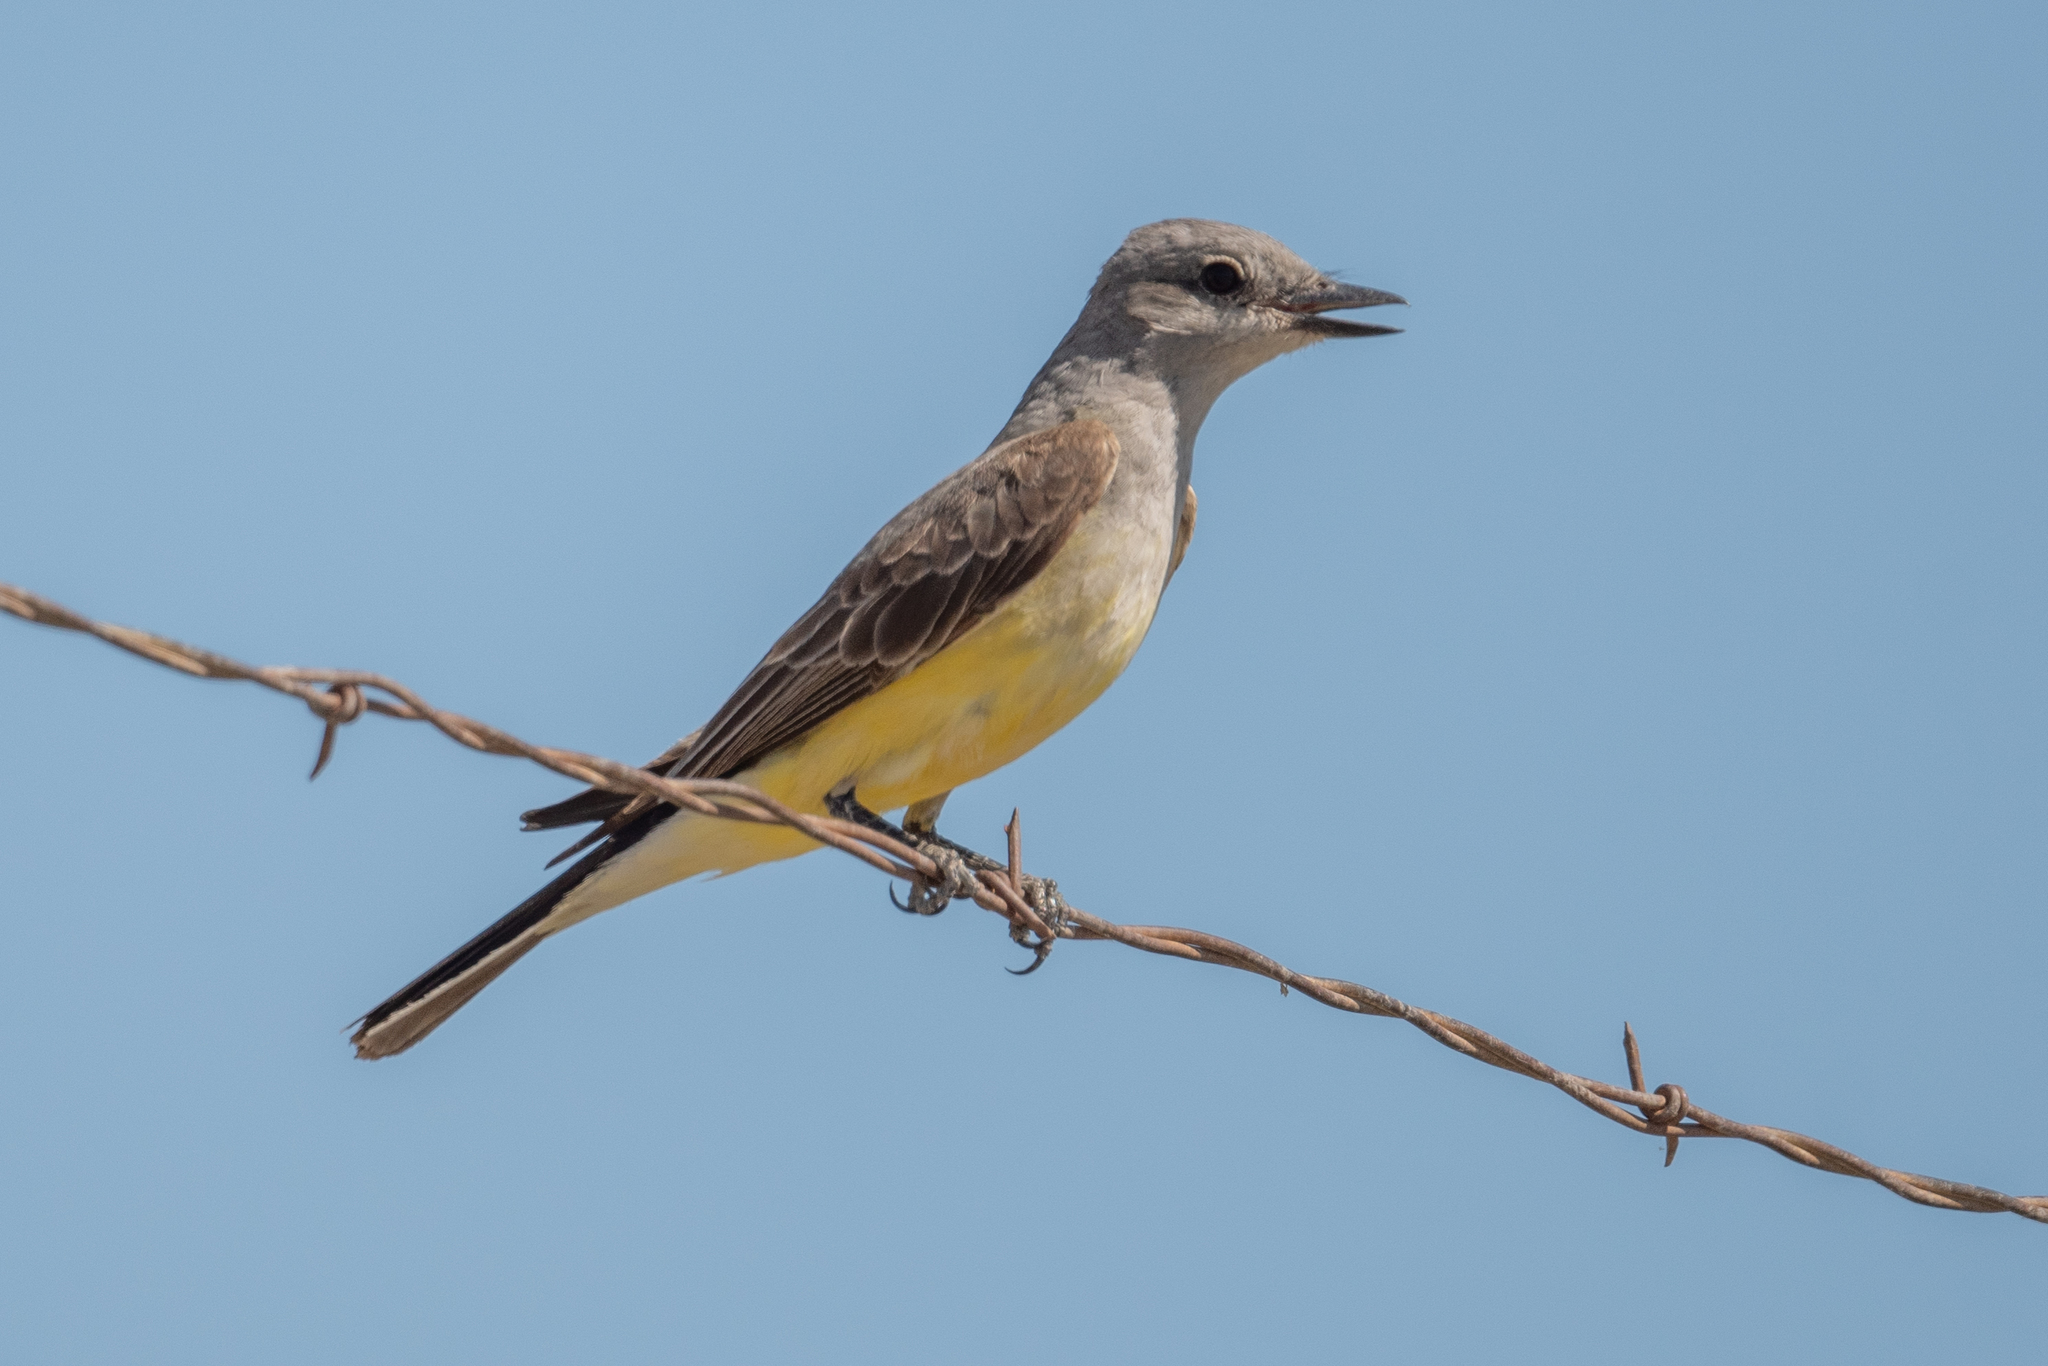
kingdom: Animalia
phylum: Chordata
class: Aves
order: Passeriformes
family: Tyrannidae
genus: Tyrannus
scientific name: Tyrannus verticalis
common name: Western kingbird
